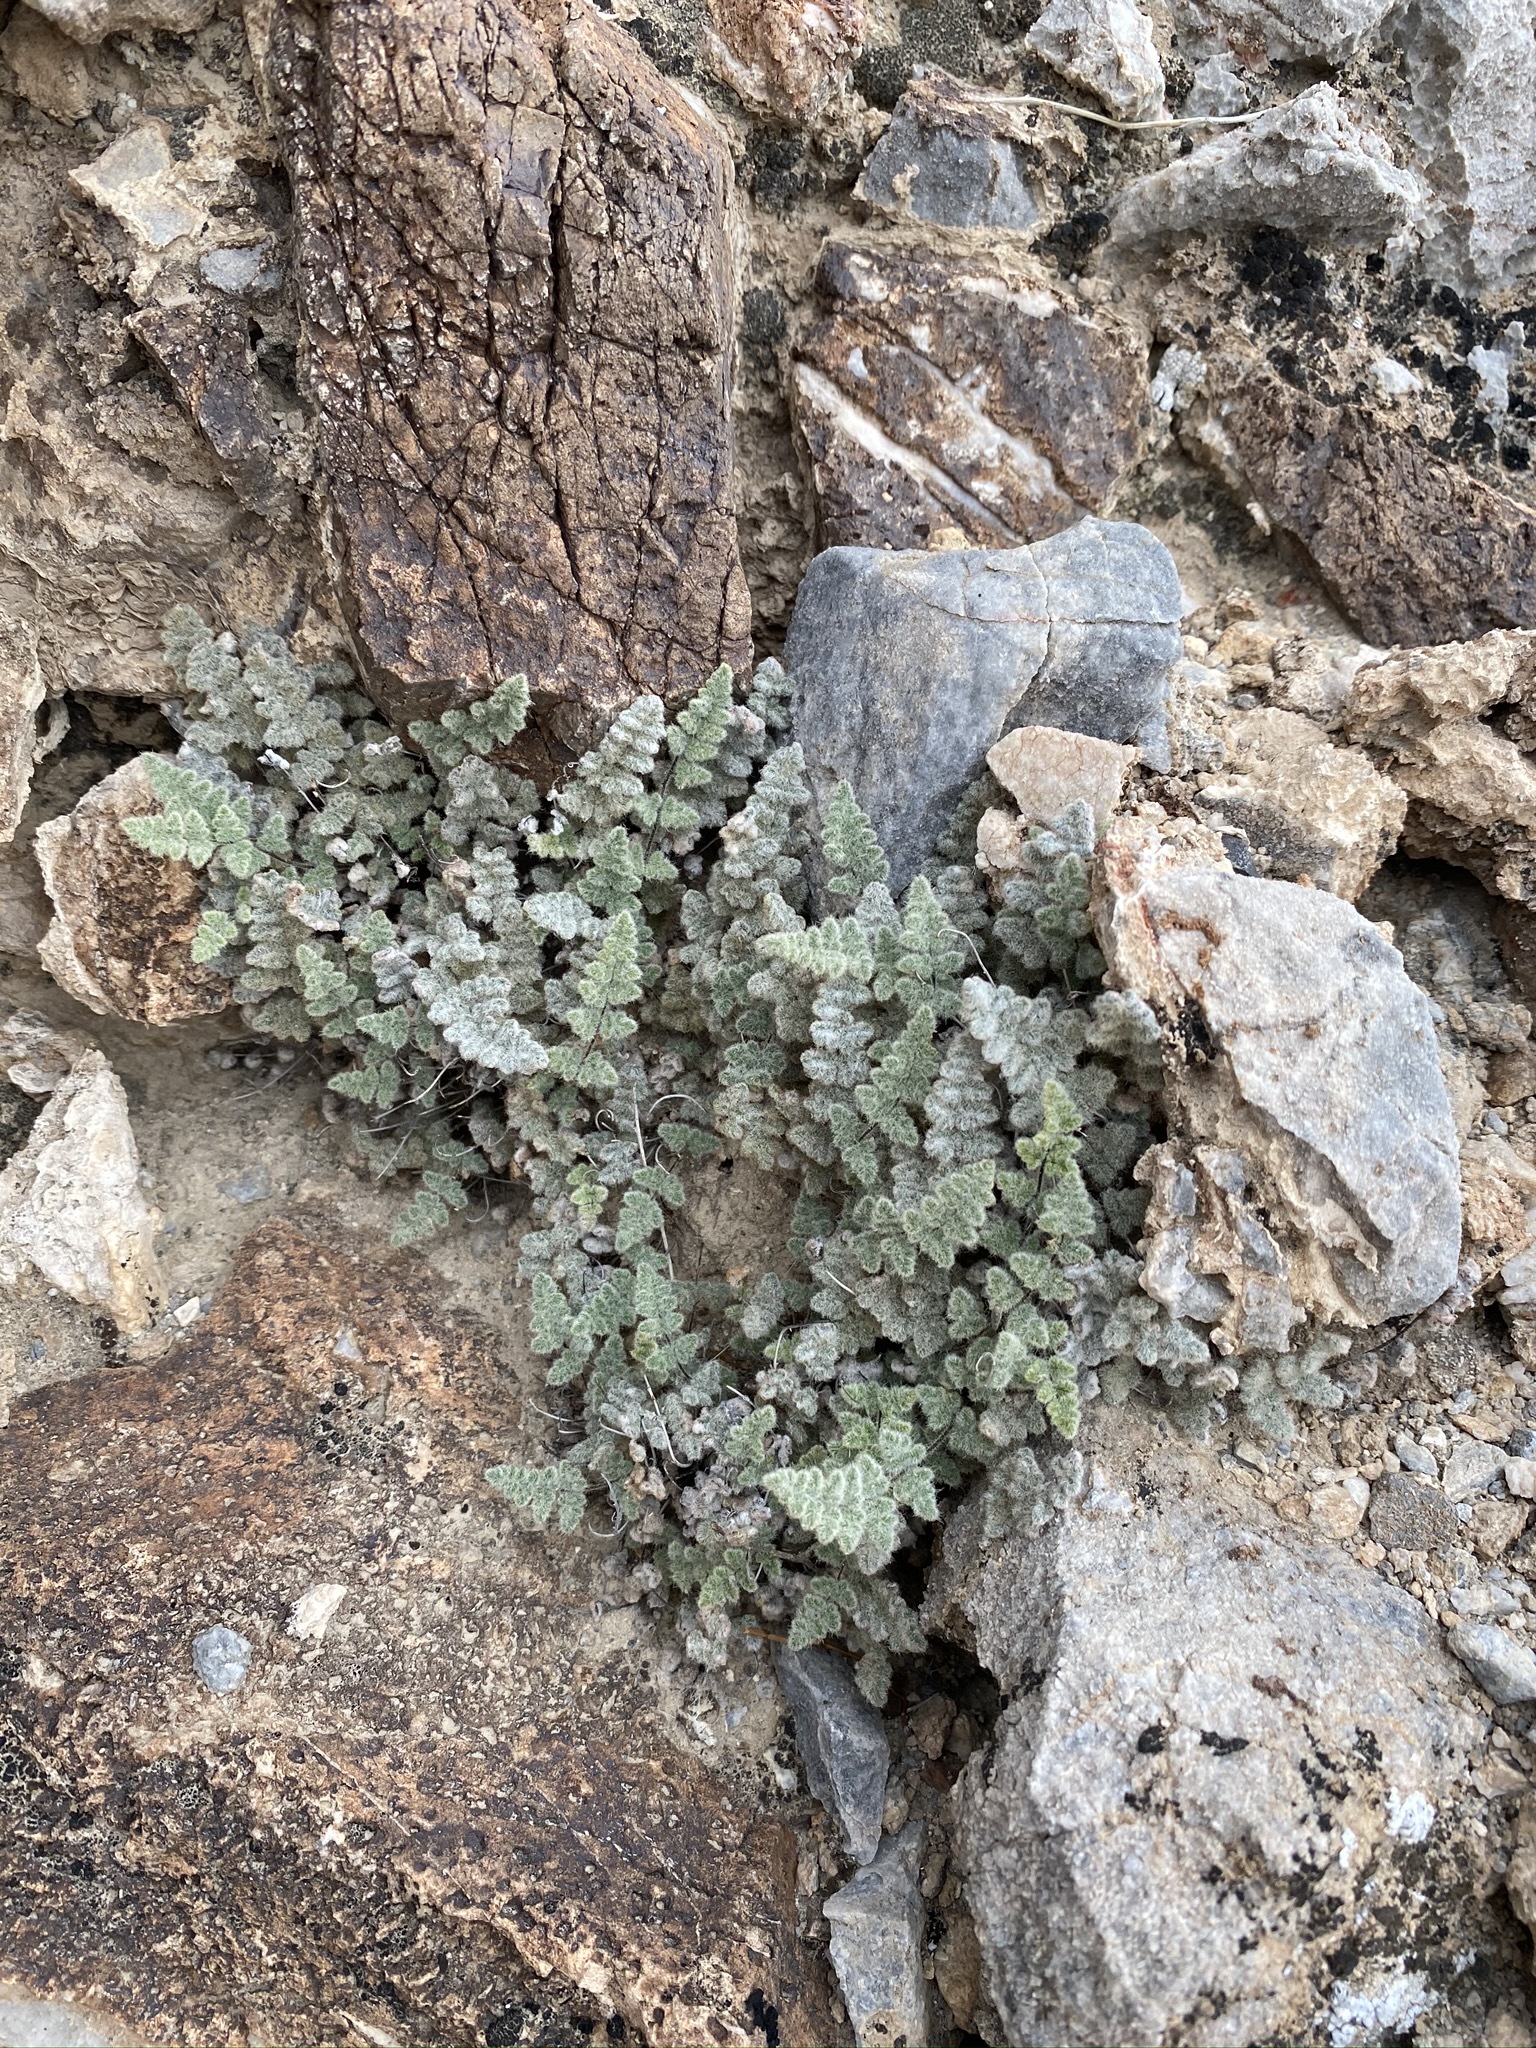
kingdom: Plantae
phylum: Tracheophyta
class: Polypodiopsida
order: Polypodiales
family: Pteridaceae
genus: Myriopteris
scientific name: Myriopteris parryi
